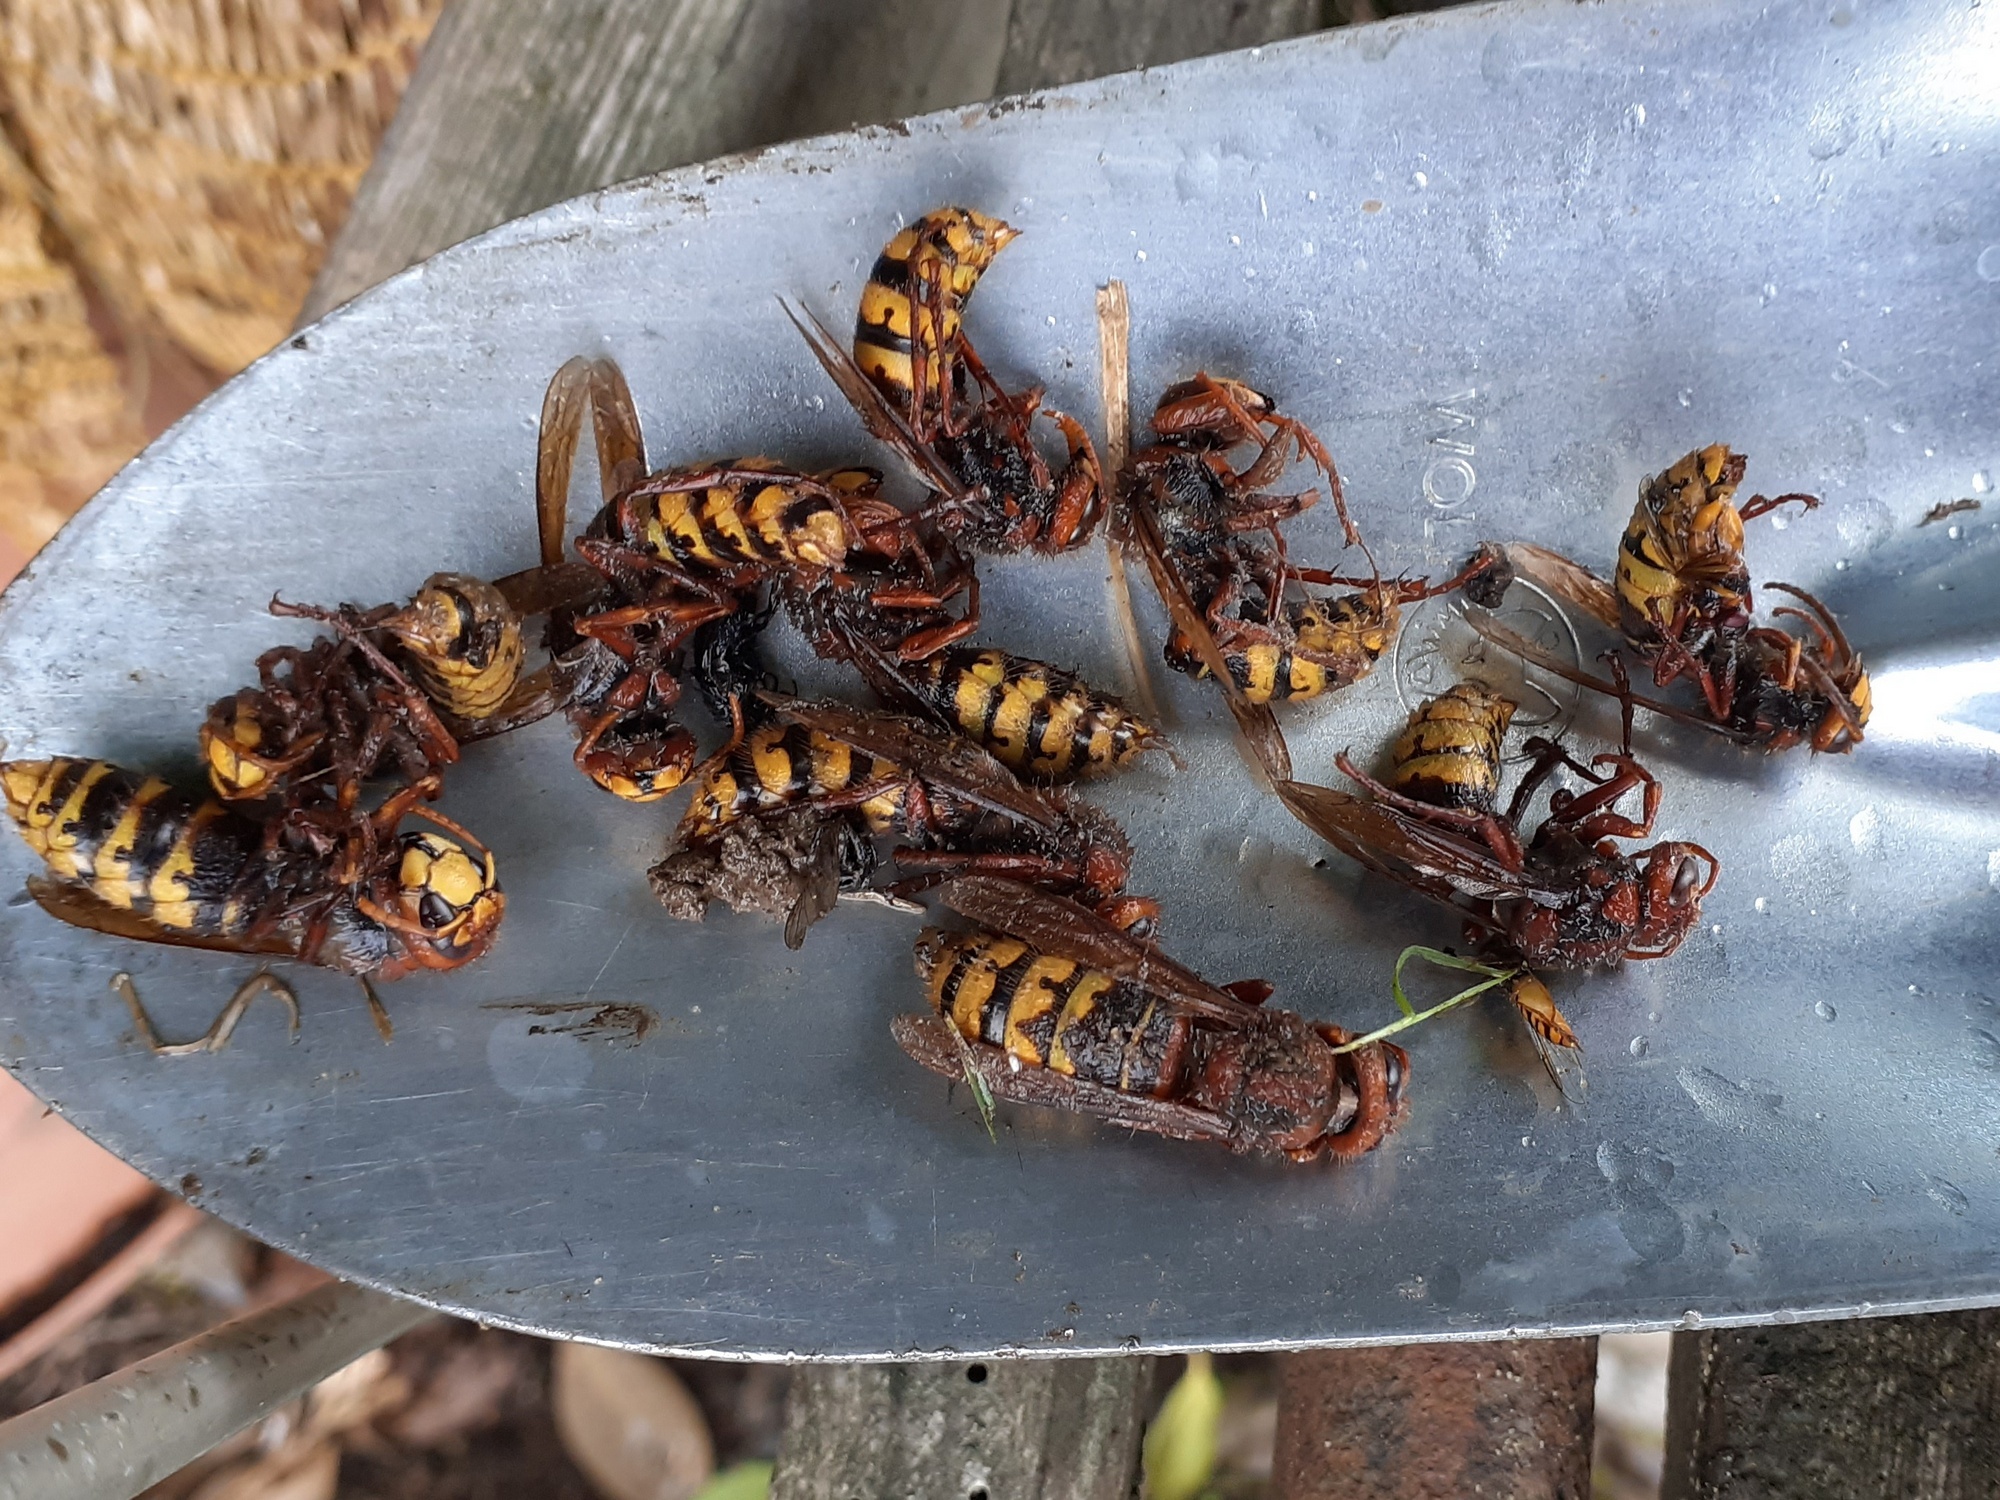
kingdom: Animalia
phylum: Arthropoda
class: Insecta
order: Hymenoptera
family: Vespidae
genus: Vespa
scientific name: Vespa crabro
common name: Hornet
